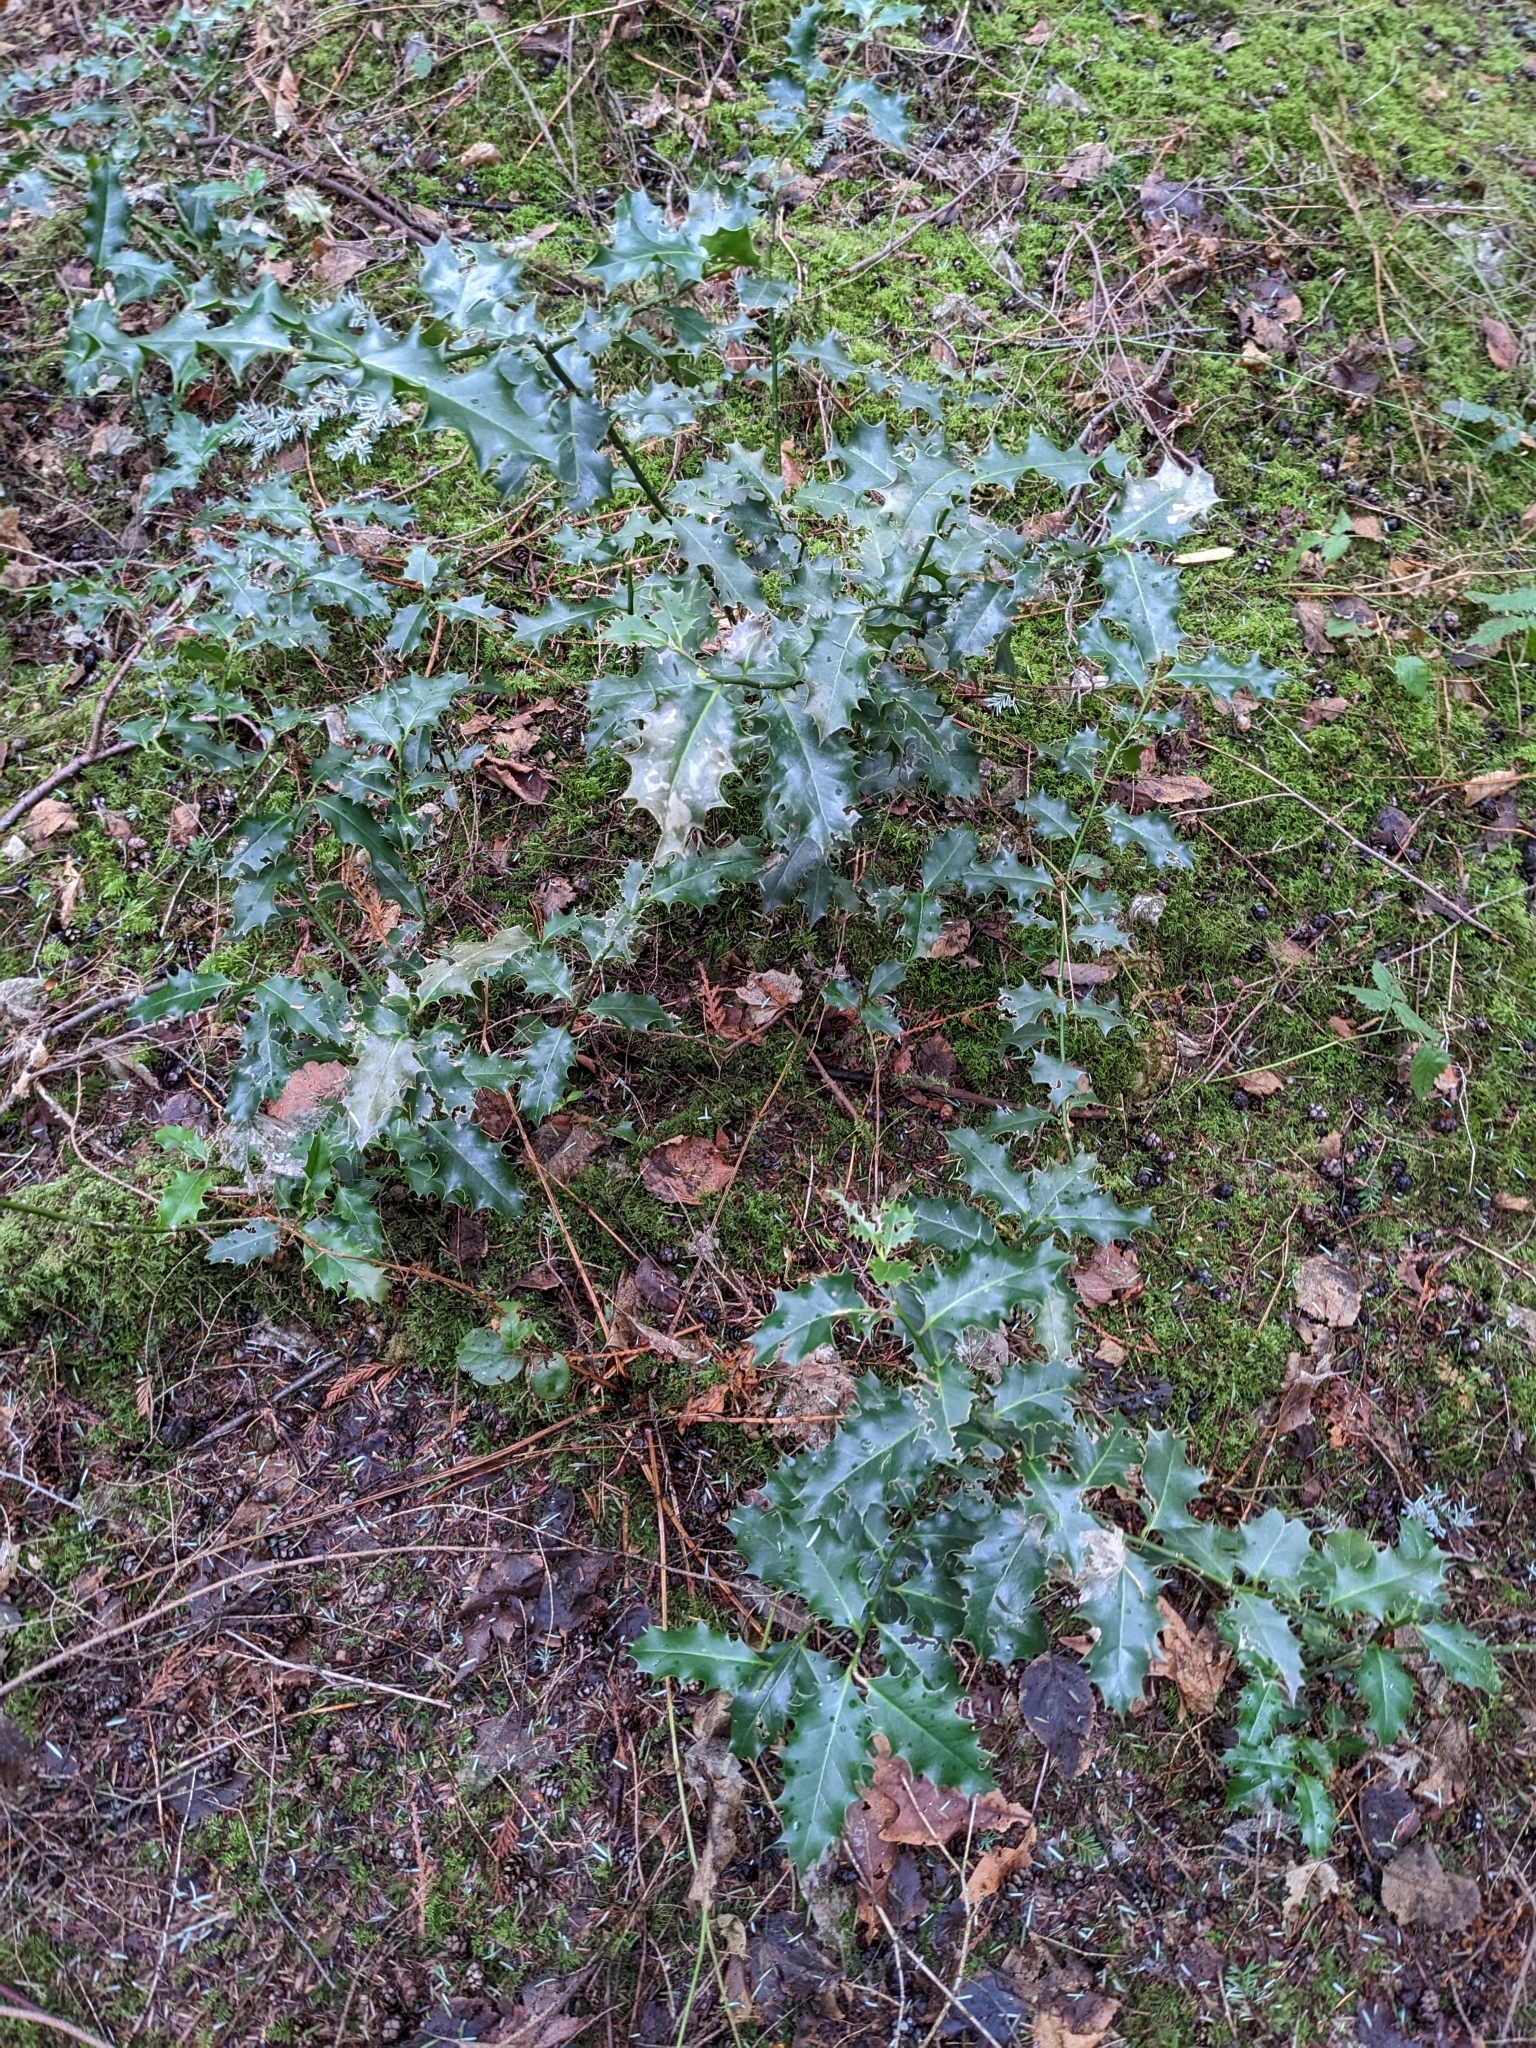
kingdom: Plantae
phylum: Tracheophyta
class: Magnoliopsida
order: Aquifoliales
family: Aquifoliaceae
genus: Ilex
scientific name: Ilex aquifolium
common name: English holly
